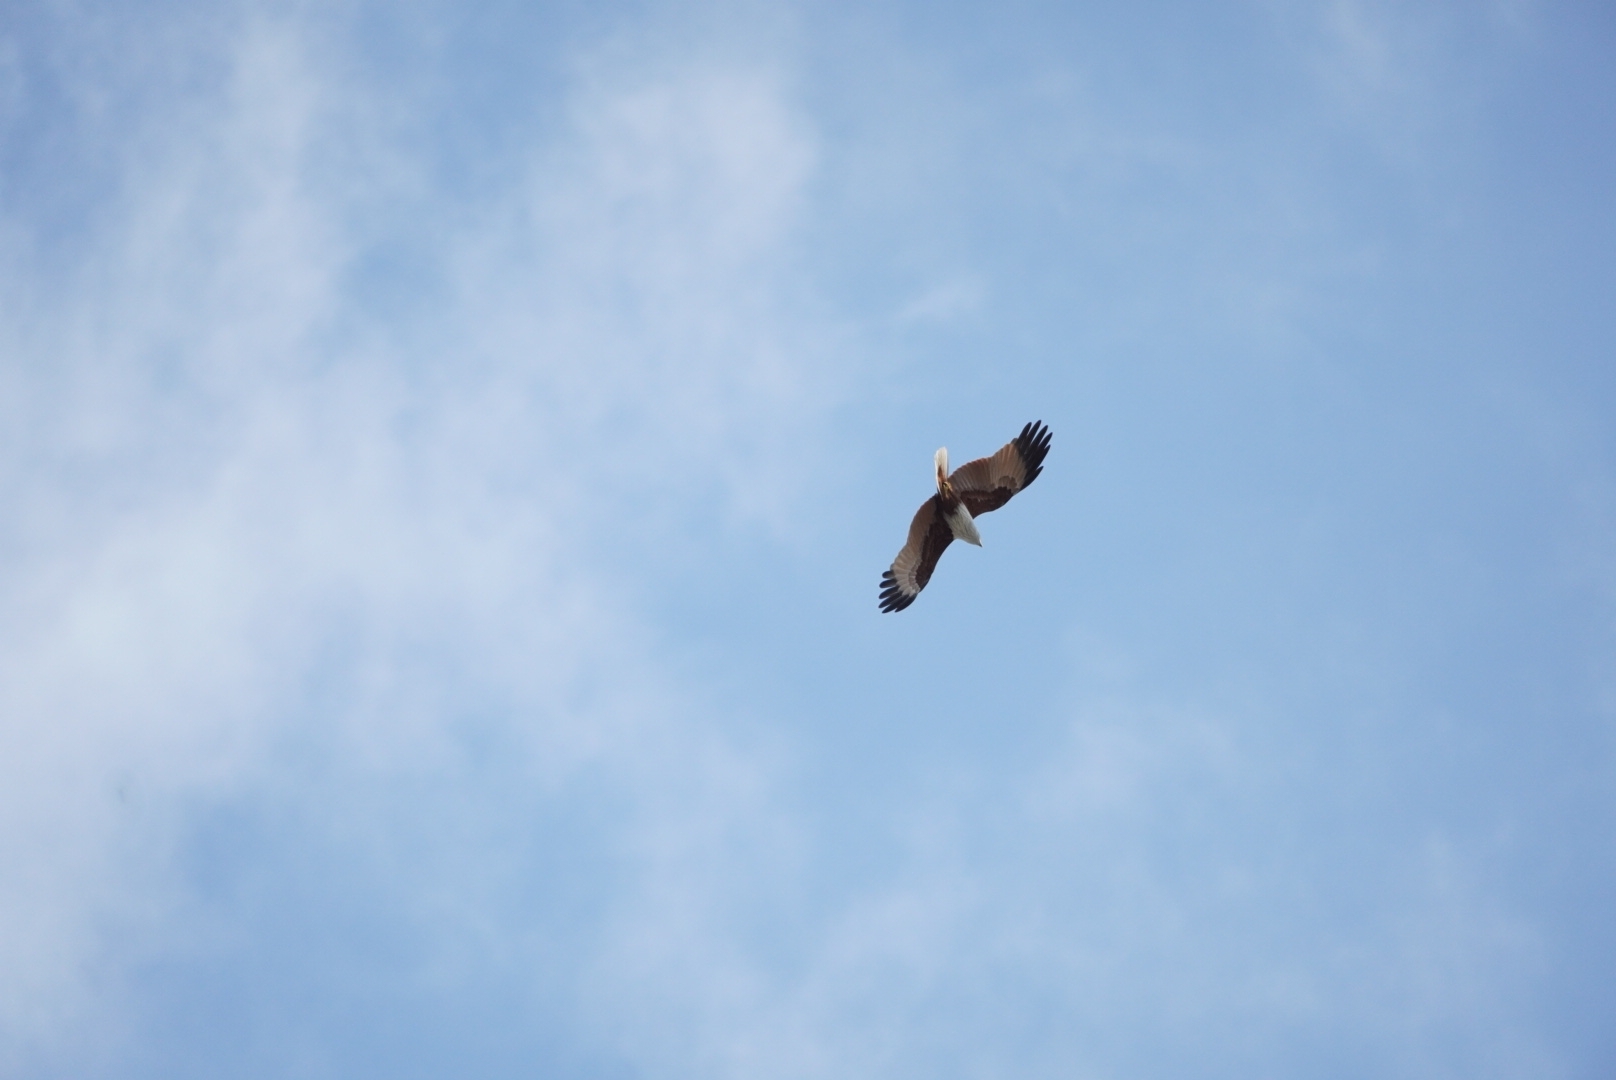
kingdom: Animalia
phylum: Chordata
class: Aves
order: Accipitriformes
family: Accipitridae
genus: Haliastur
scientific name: Haliastur indus
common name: Brahminy kite
